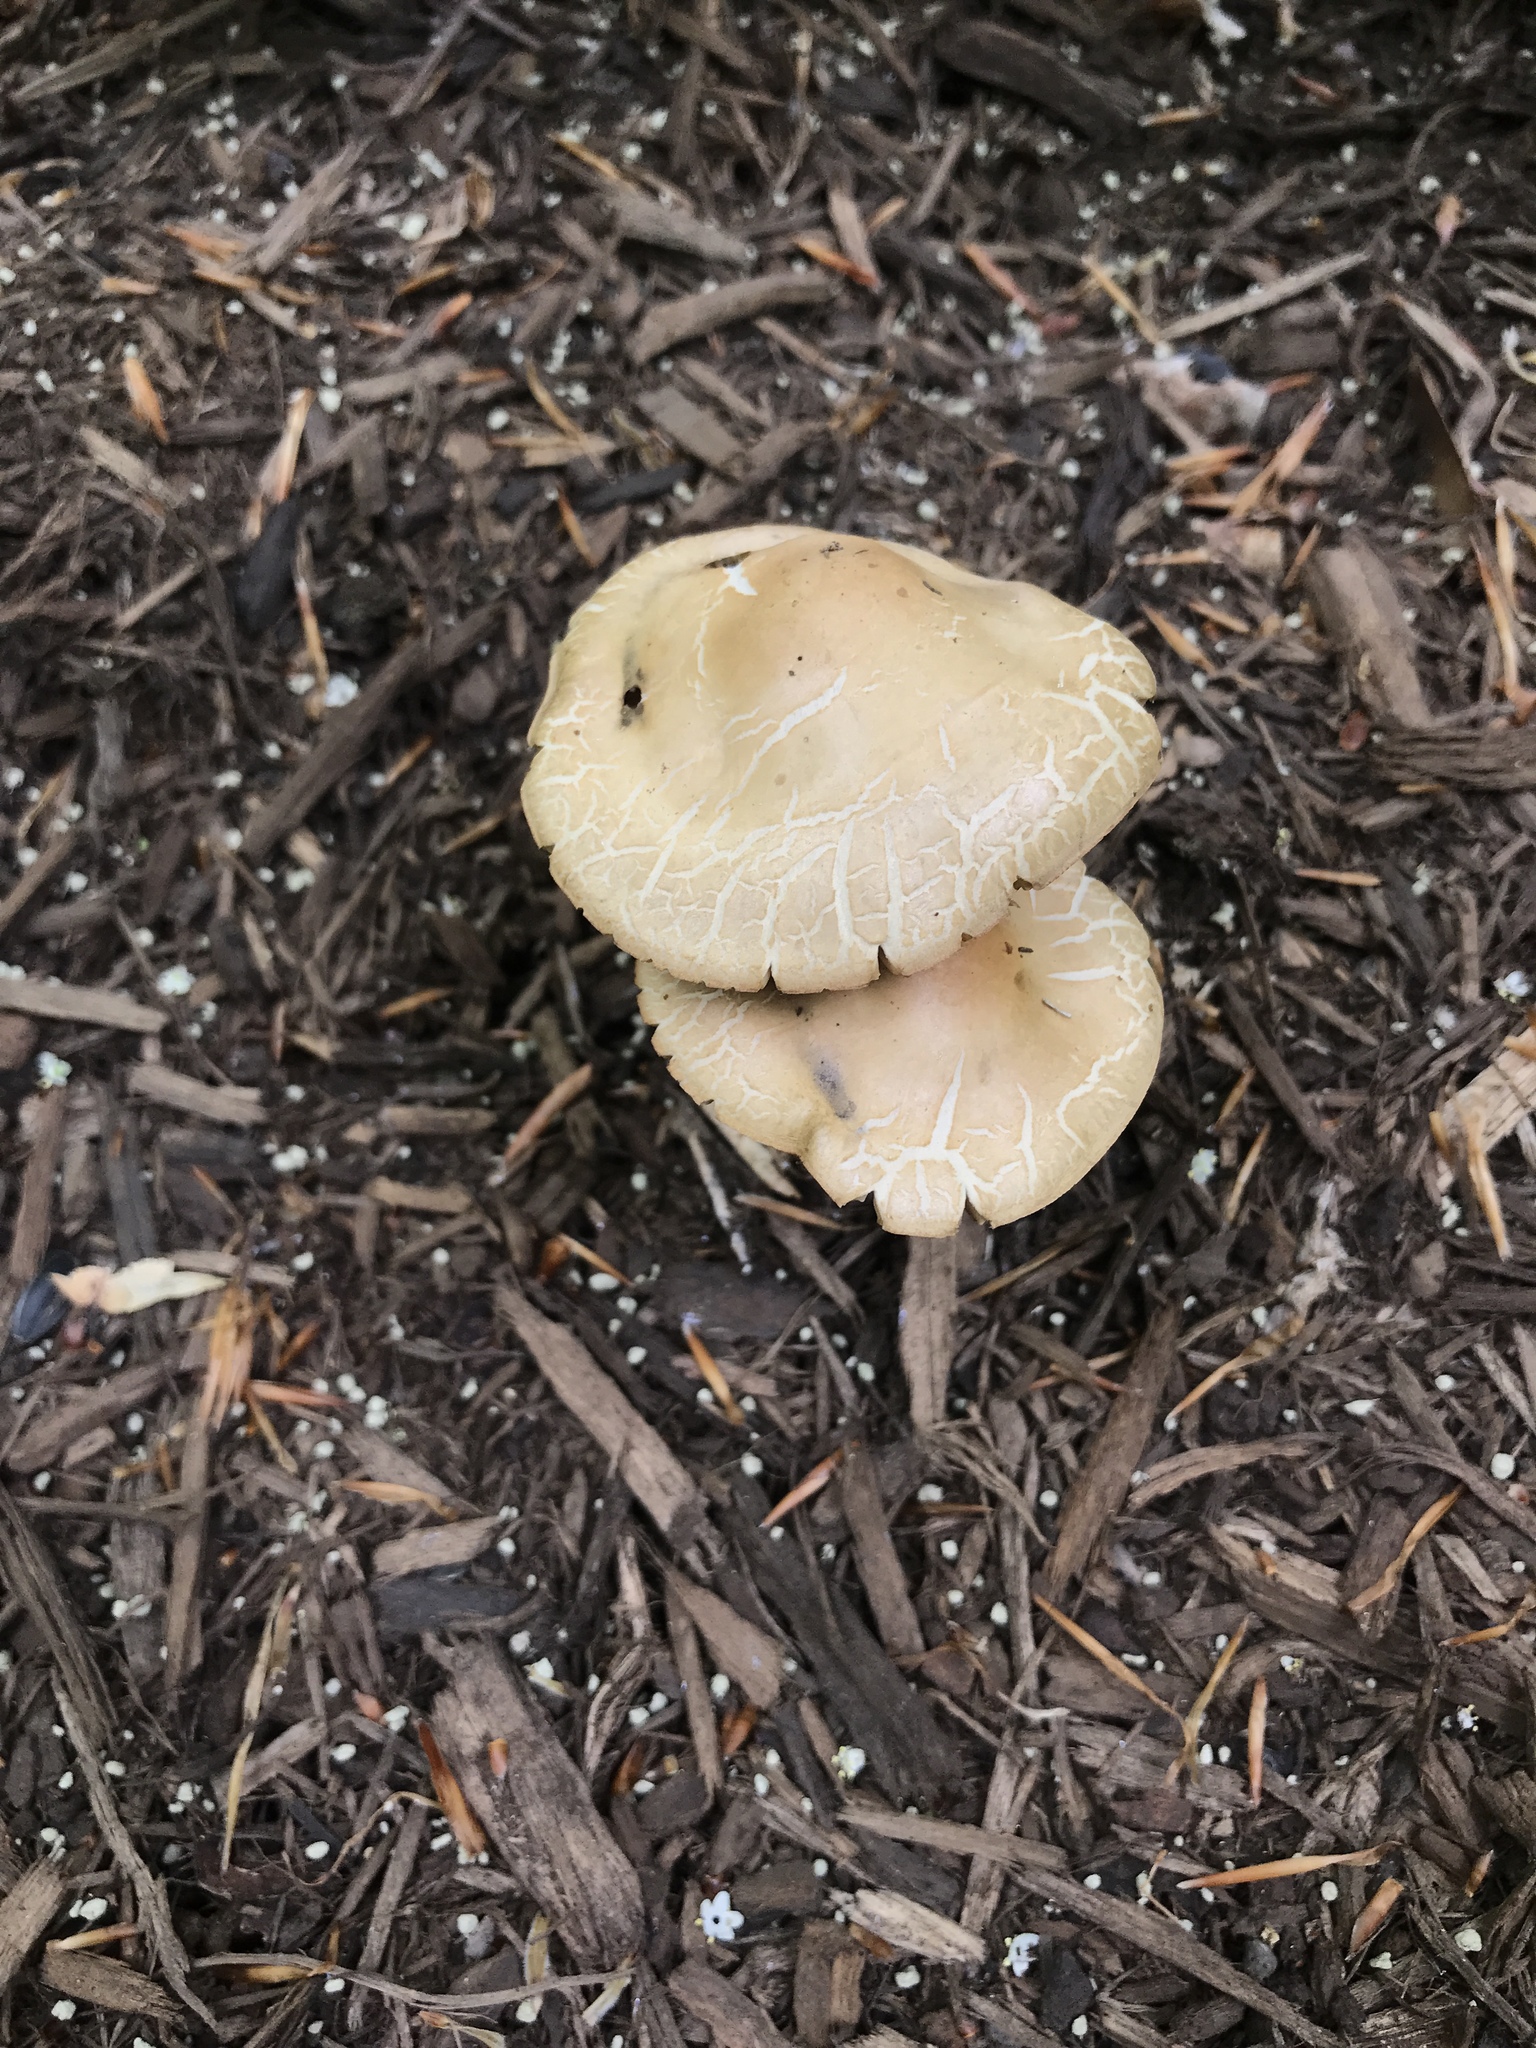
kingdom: Fungi
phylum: Basidiomycota
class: Agaricomycetes
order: Agaricales
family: Strophariaceae
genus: Agrocybe
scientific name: Agrocybe praecox
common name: Spring fieldcap
